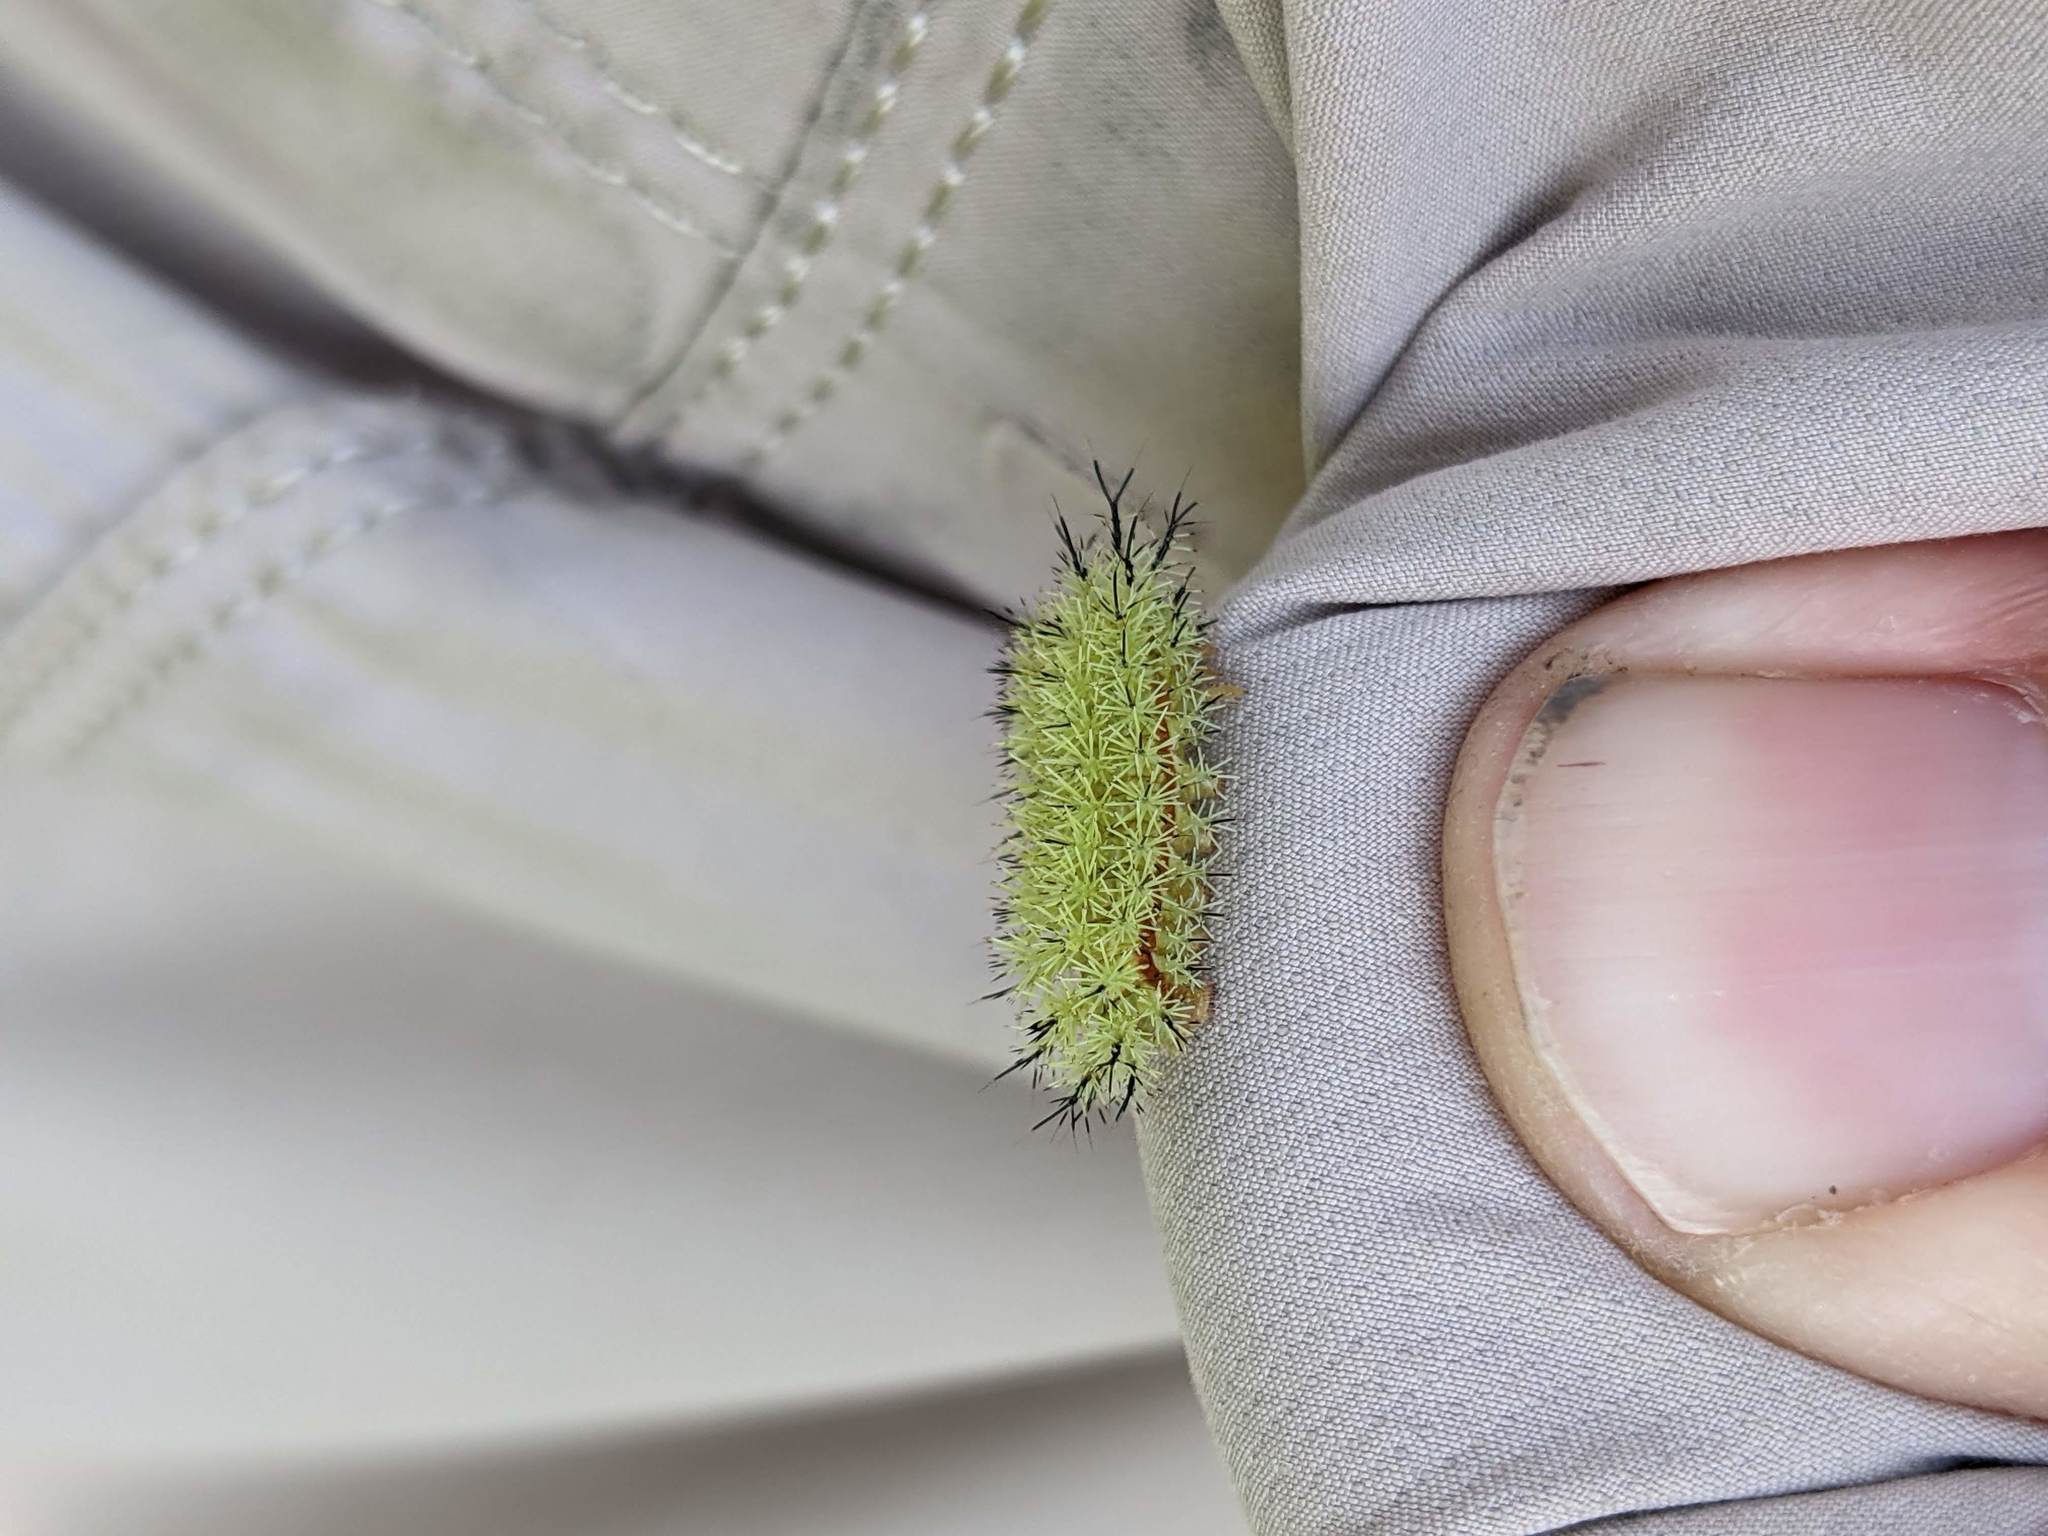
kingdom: Animalia
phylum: Arthropoda
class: Insecta
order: Lepidoptera
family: Saturniidae
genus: Automeris
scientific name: Automeris io
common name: Io moth
